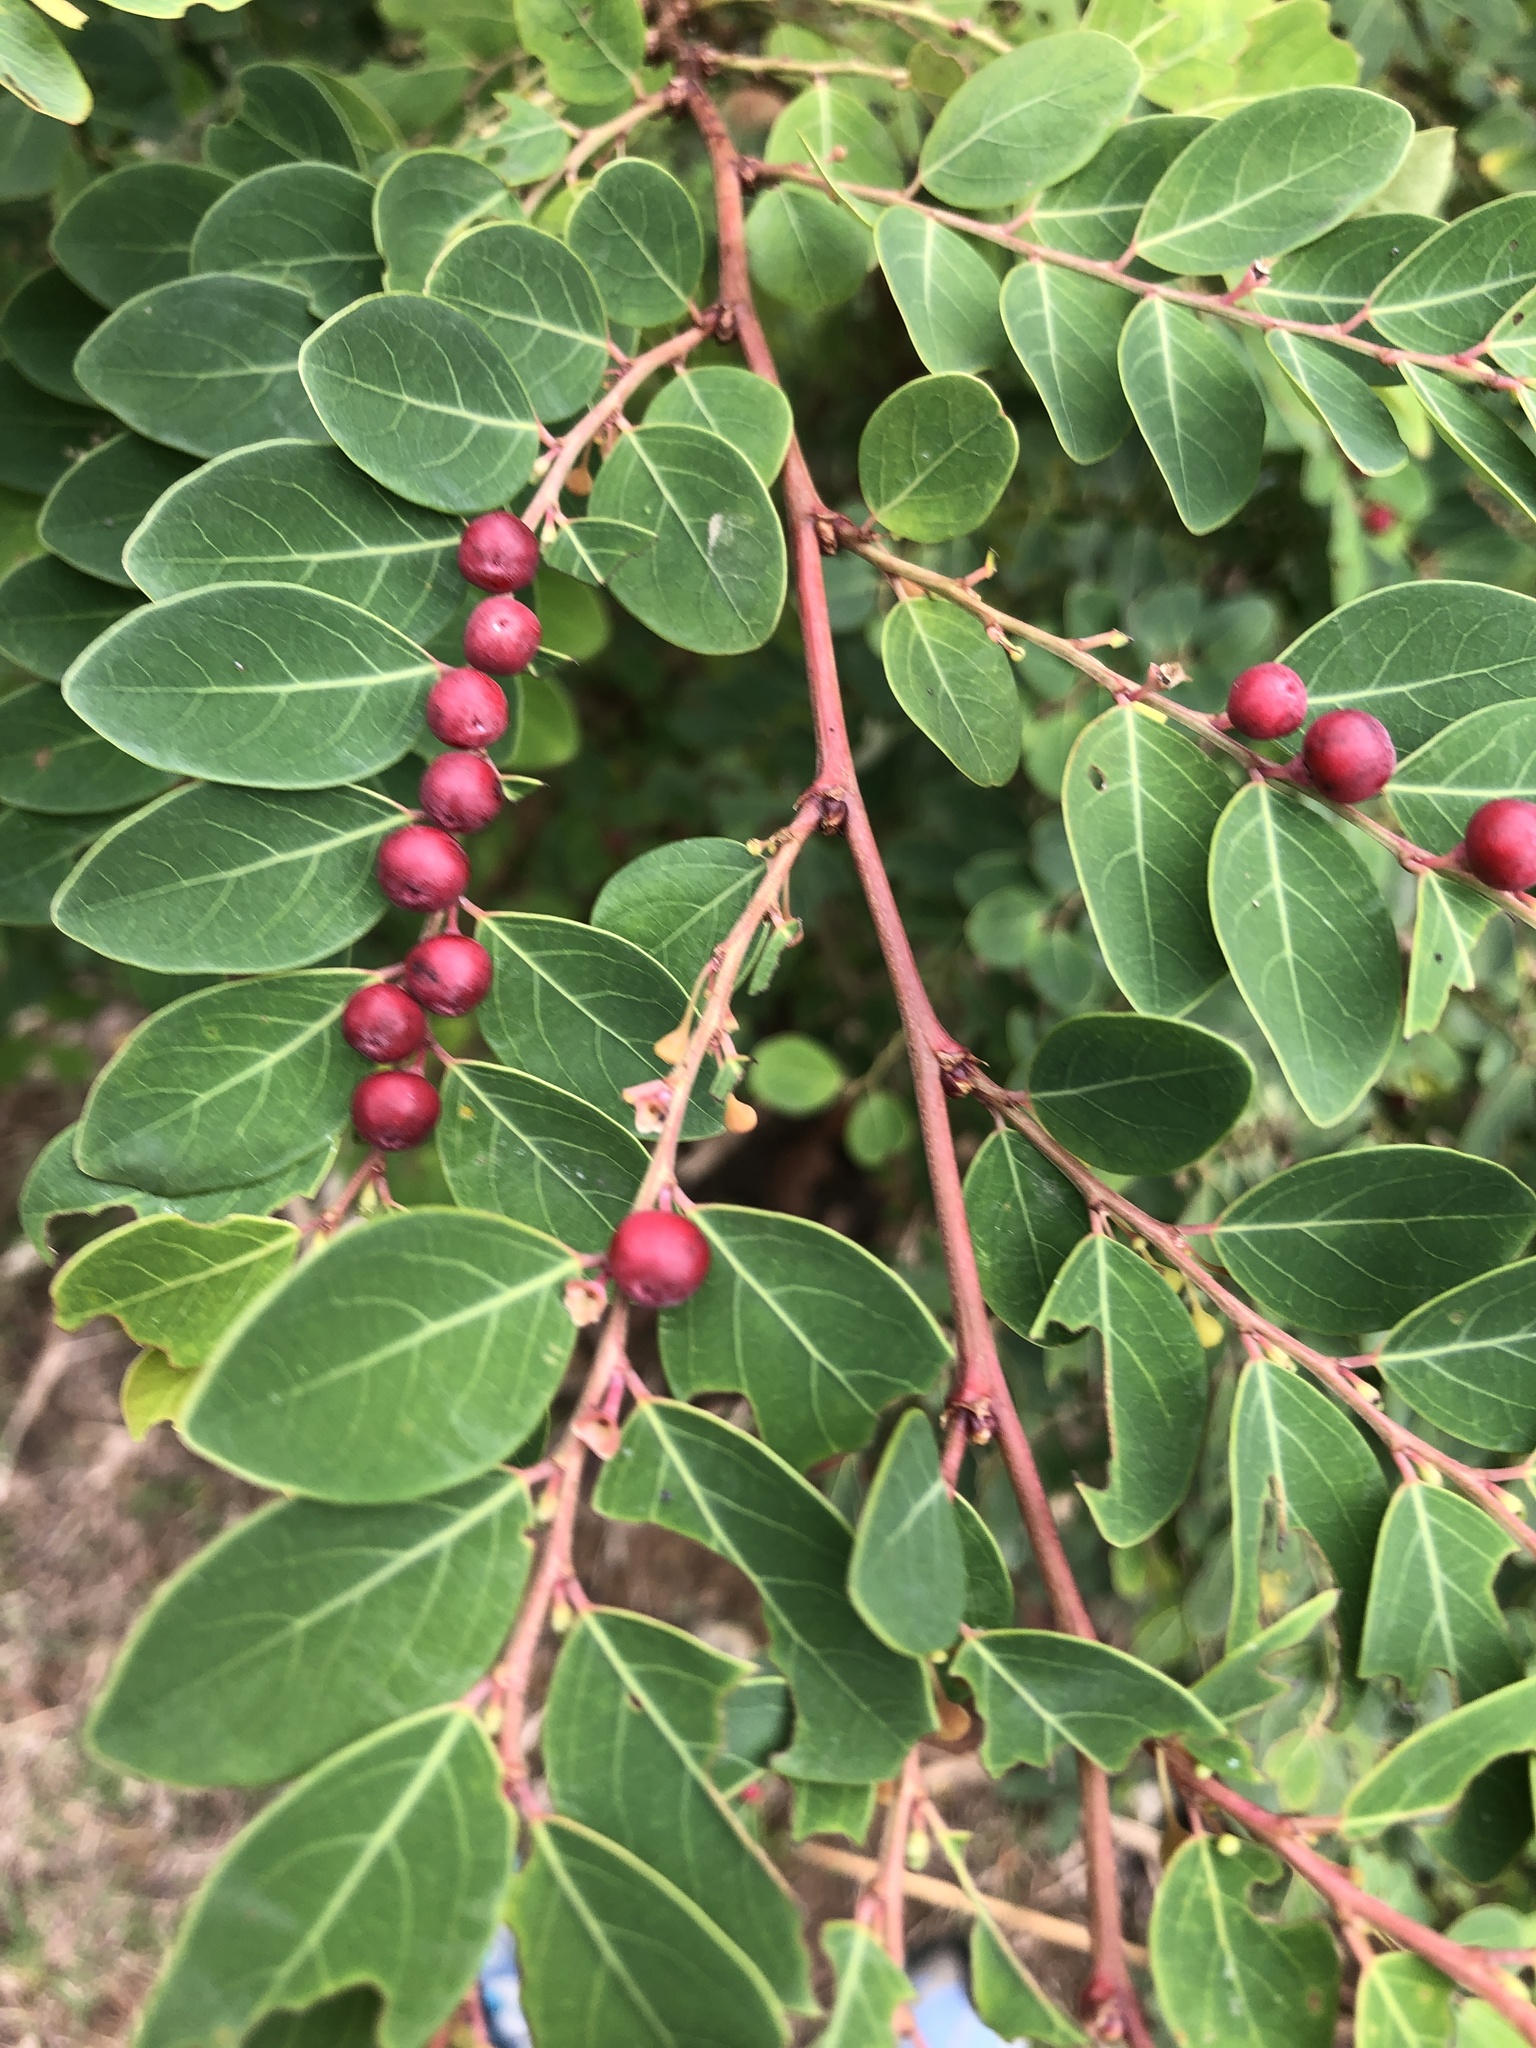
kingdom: Plantae
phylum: Tracheophyta
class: Magnoliopsida
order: Malpighiales
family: Phyllanthaceae
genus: Breynia
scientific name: Breynia vitis-idaea
